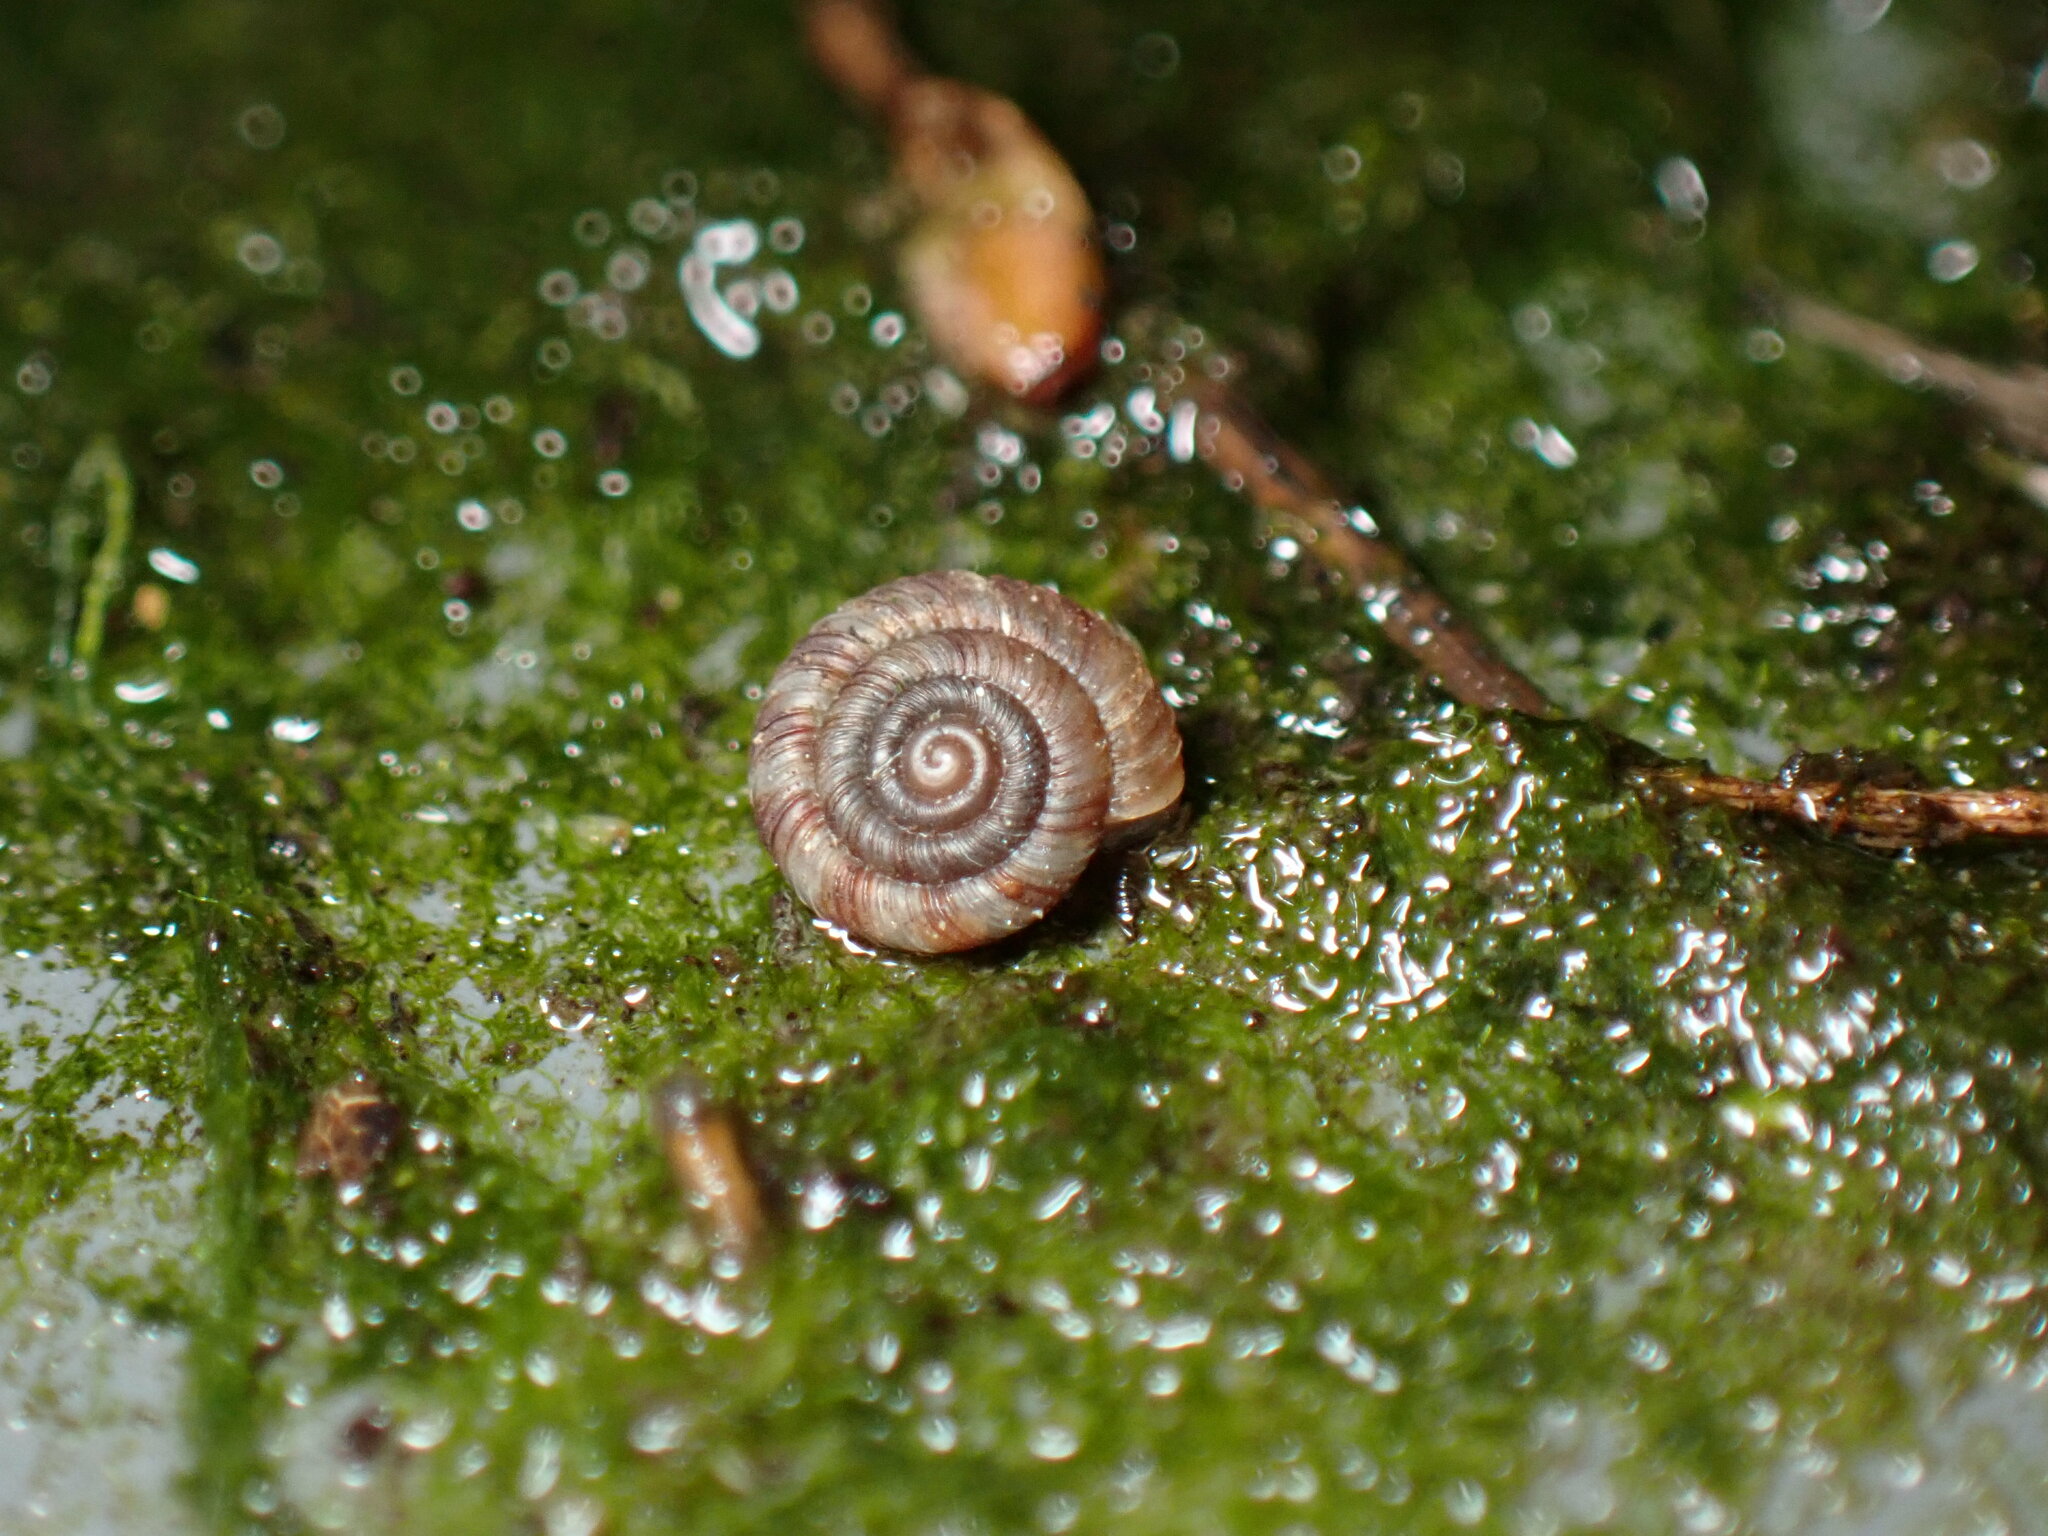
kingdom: Animalia
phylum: Mollusca
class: Gastropoda
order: Stylommatophora
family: Discidae
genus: Discus
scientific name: Discus rotundatus
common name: Rounded snail
